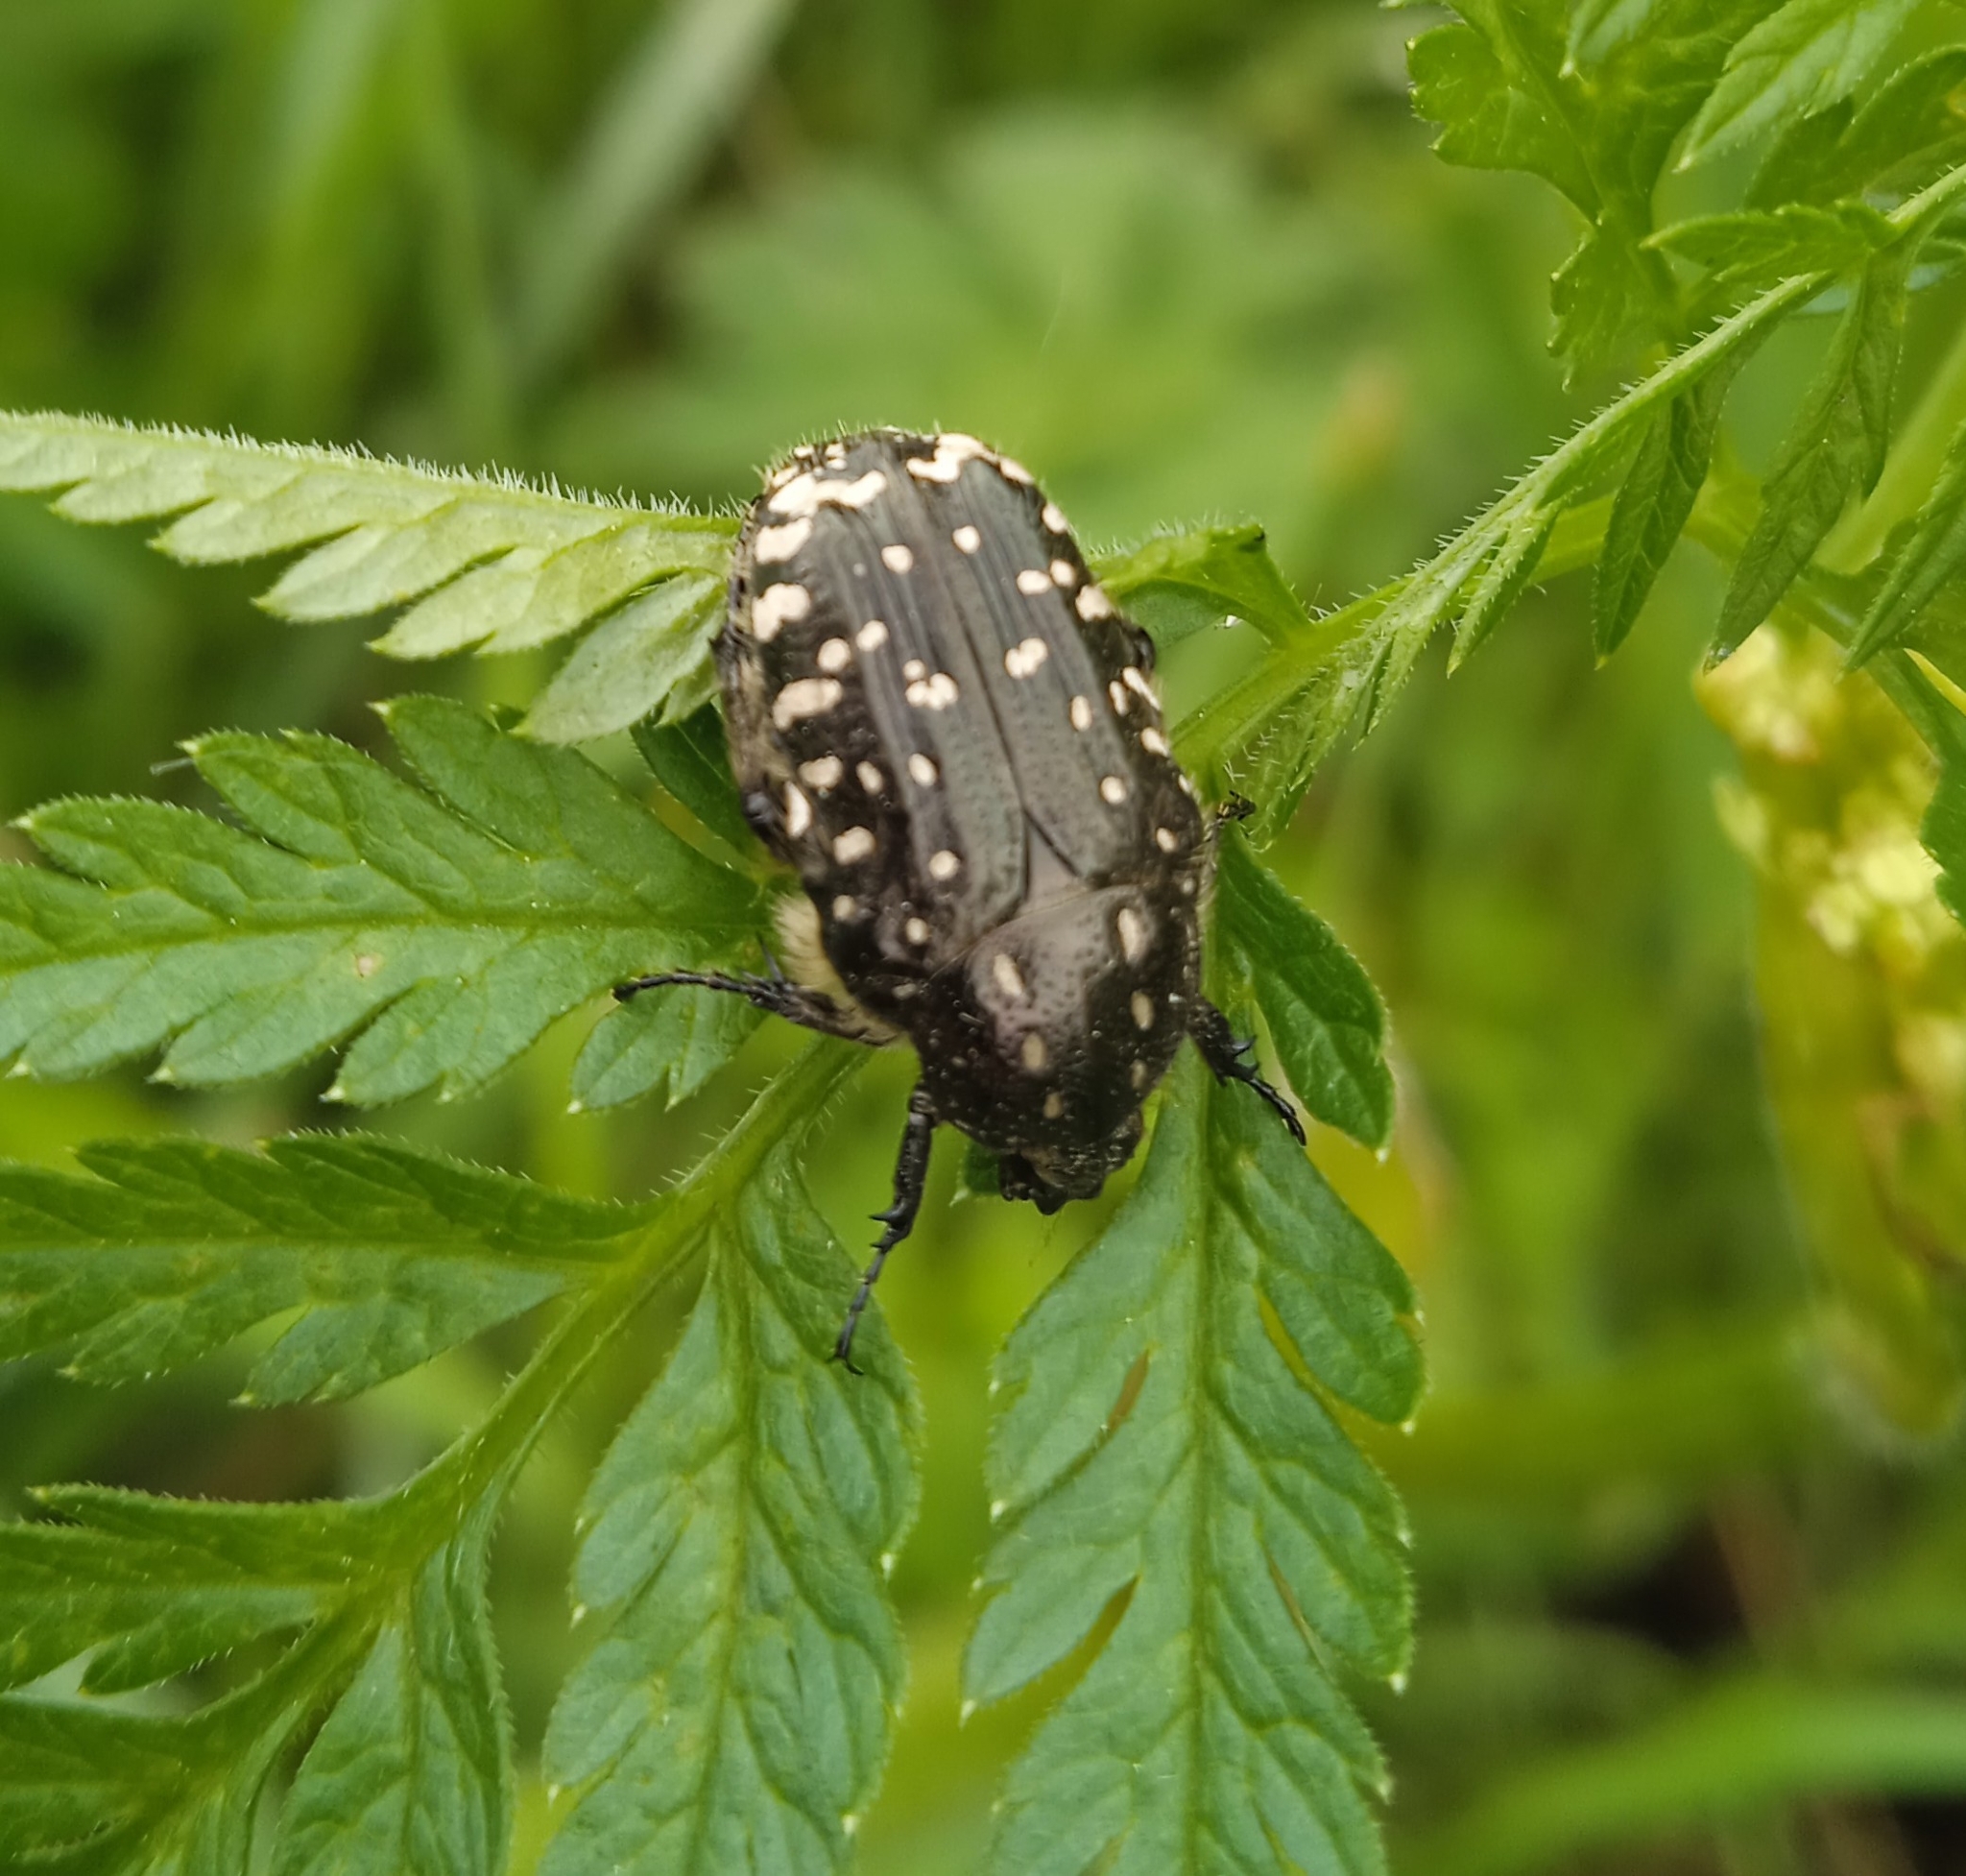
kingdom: Animalia
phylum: Arthropoda
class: Insecta
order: Coleoptera
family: Scarabaeidae
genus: Oxythyrea
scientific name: Oxythyrea funesta
